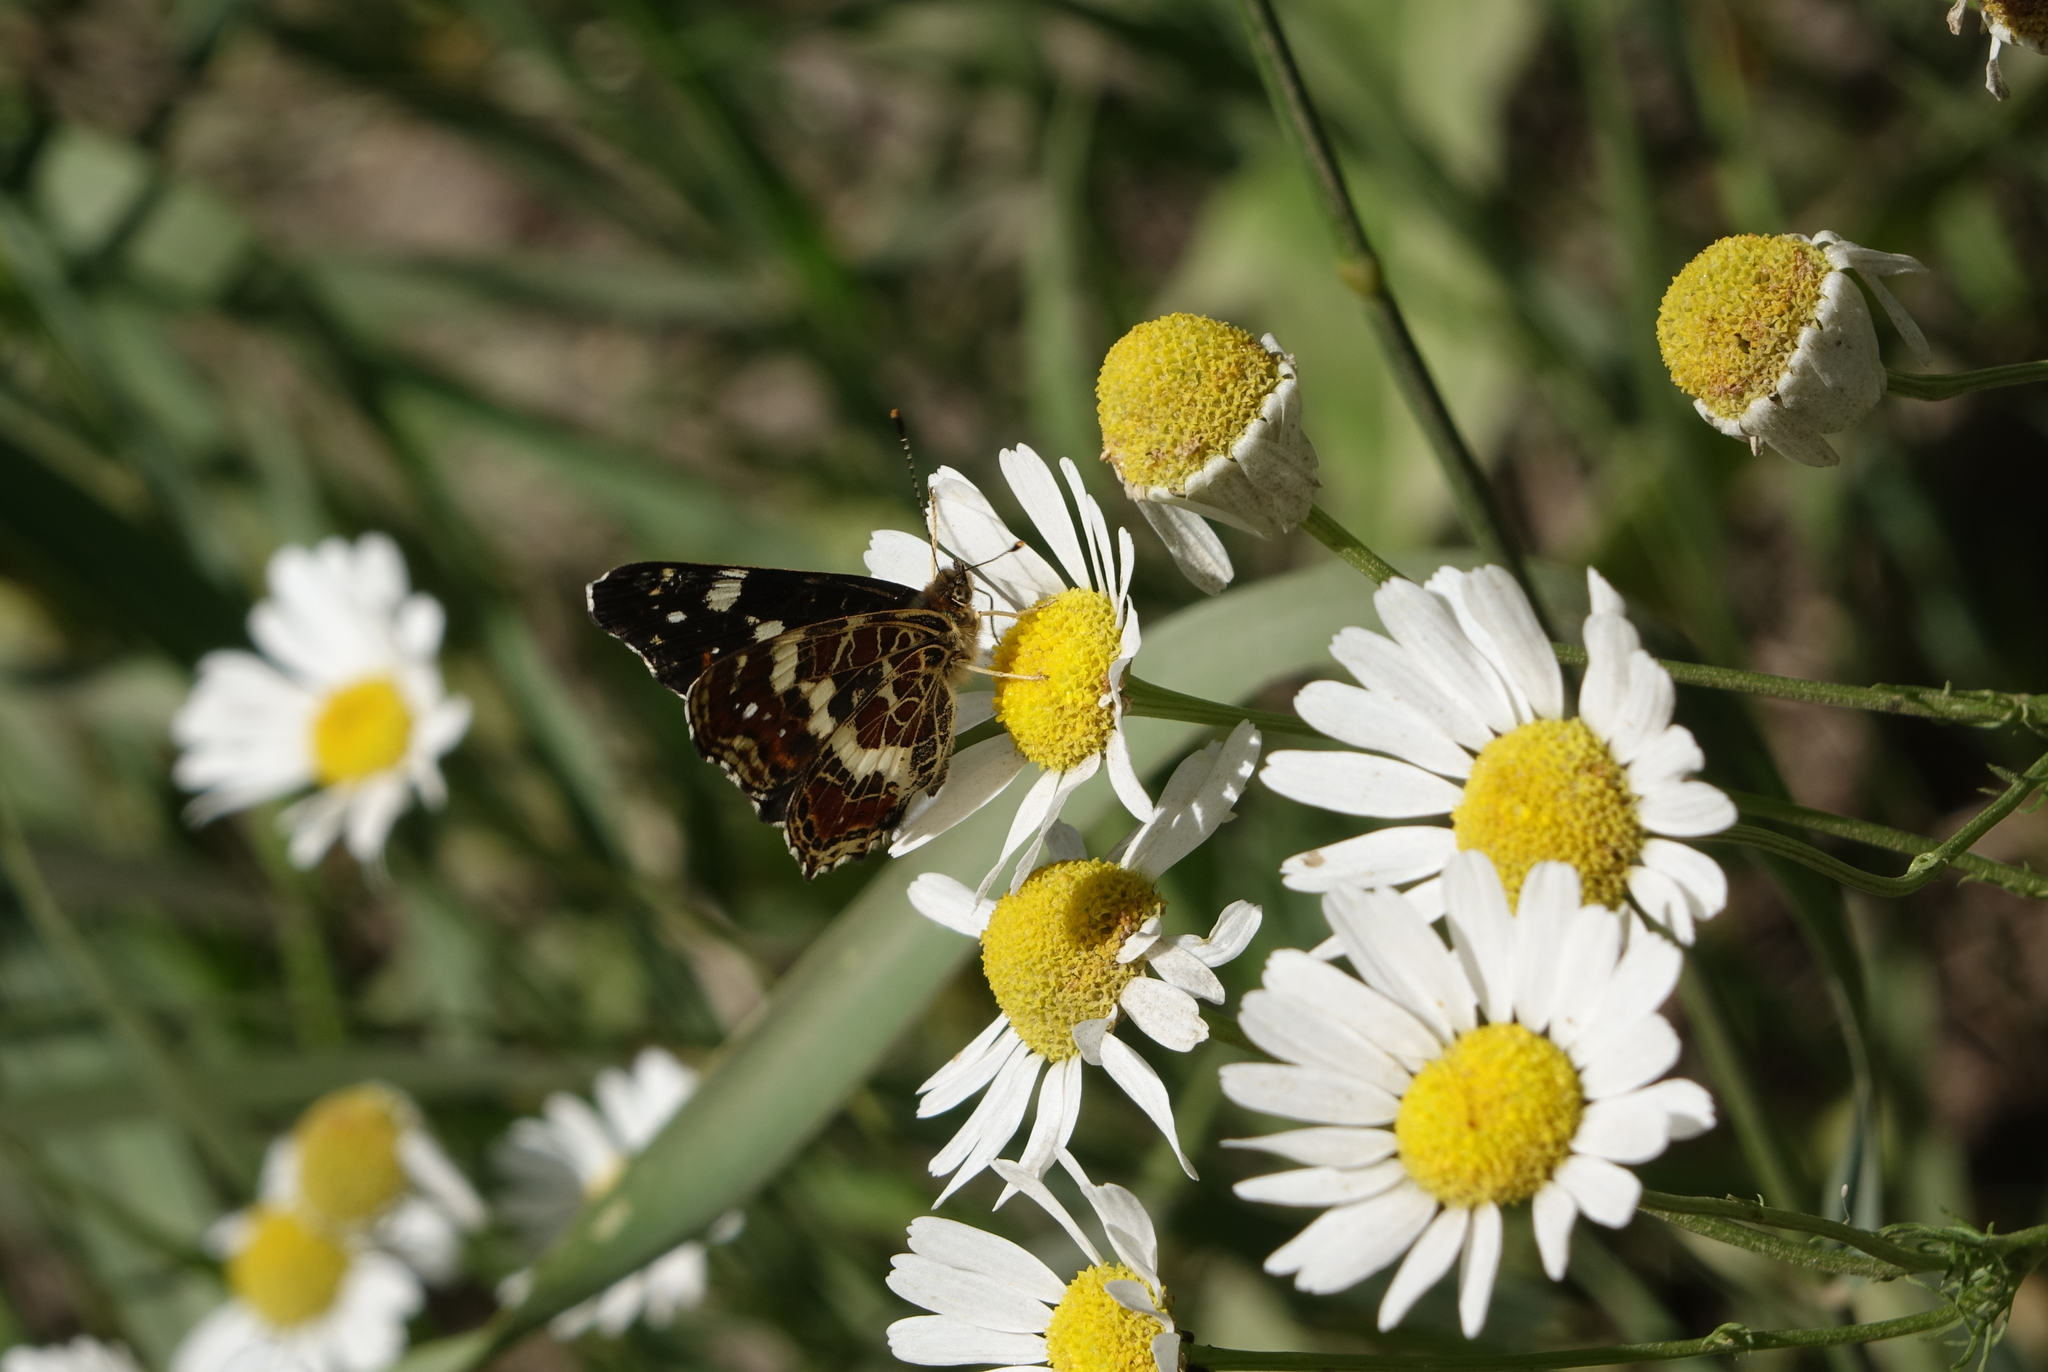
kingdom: Animalia
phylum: Arthropoda
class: Insecta
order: Lepidoptera
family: Nymphalidae
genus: Araschnia
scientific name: Araschnia levana
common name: Map butterfly
